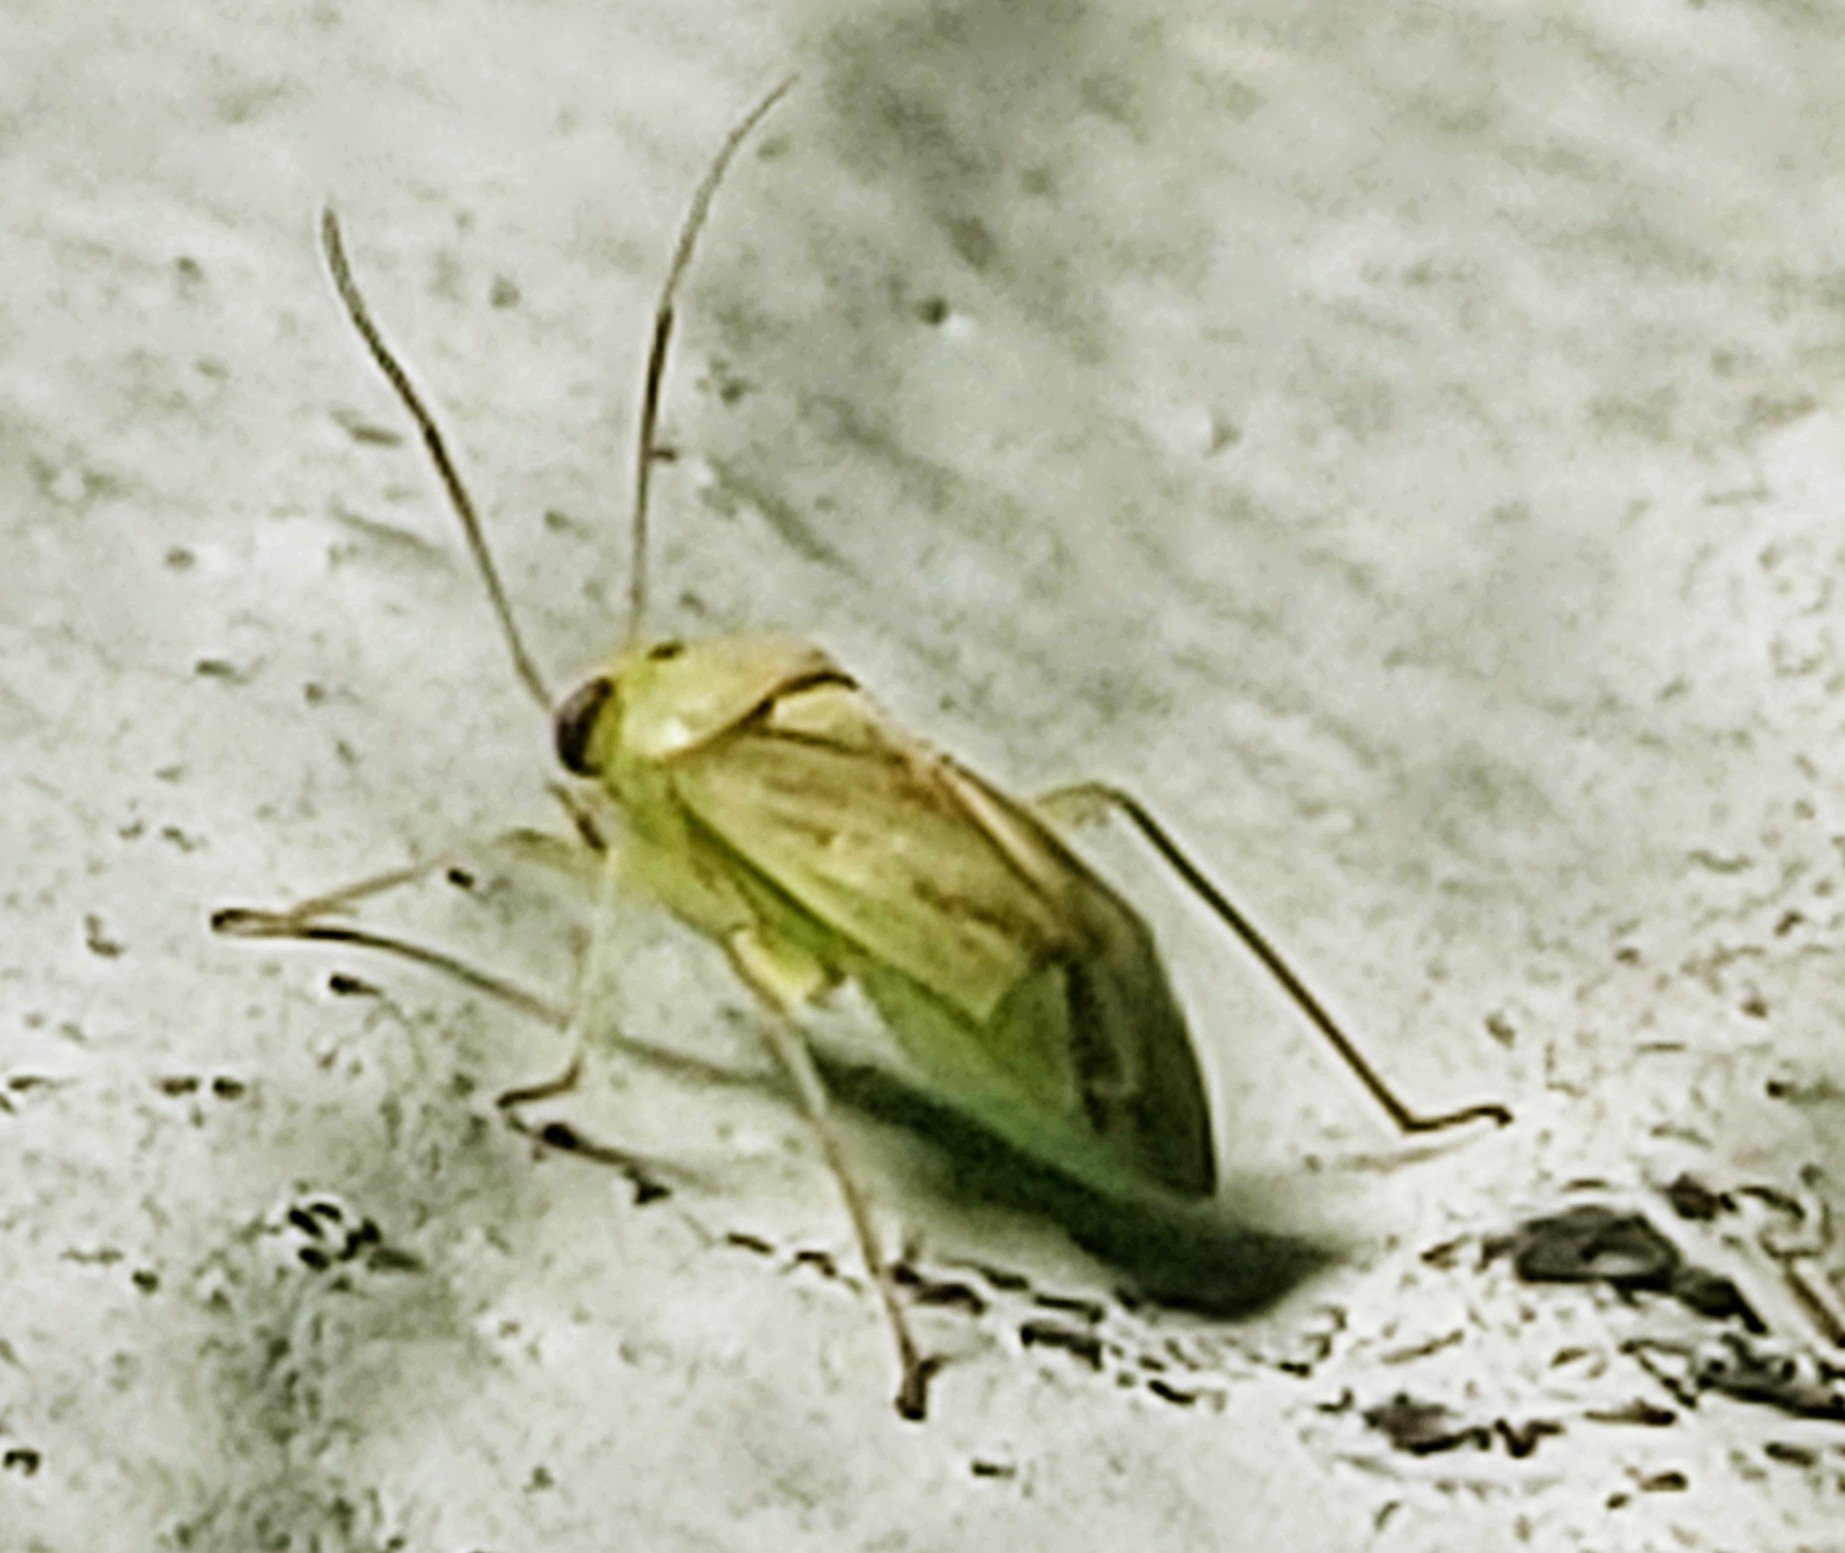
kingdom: Animalia
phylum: Arthropoda
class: Insecta
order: Hemiptera
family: Miridae
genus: Taylorilygus
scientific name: Taylorilygus apicalis
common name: Plant bug
